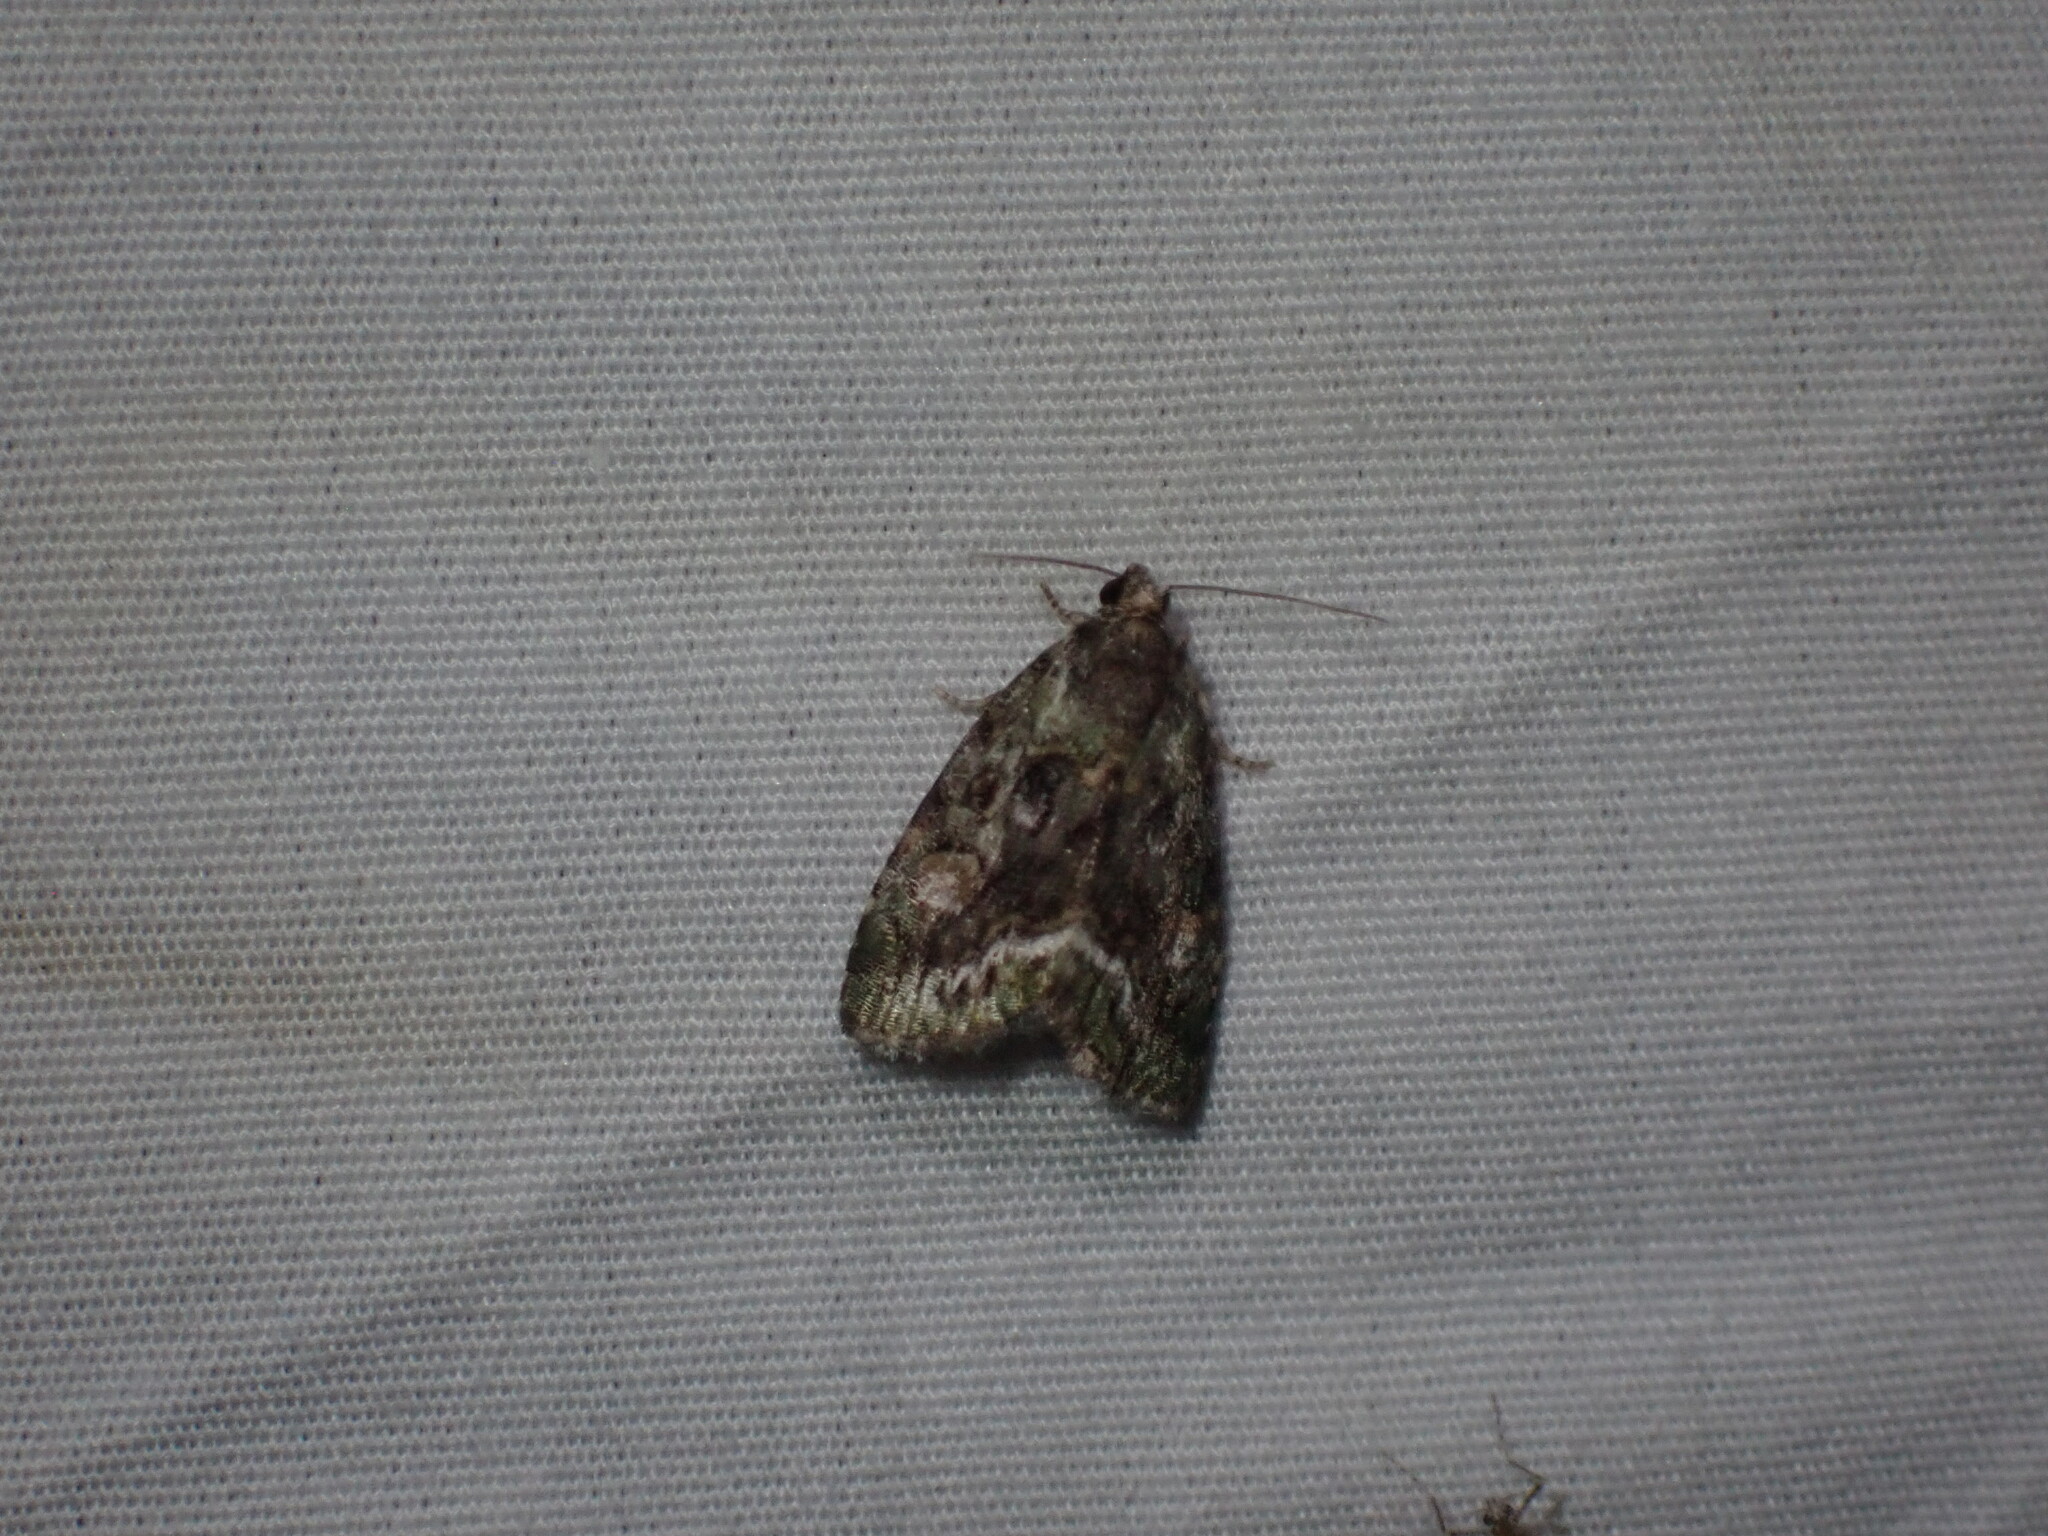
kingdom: Animalia
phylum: Arthropoda
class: Insecta
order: Lepidoptera
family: Noctuidae
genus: Lithacodia
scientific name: Lithacodia musta
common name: Small mossy glyph
